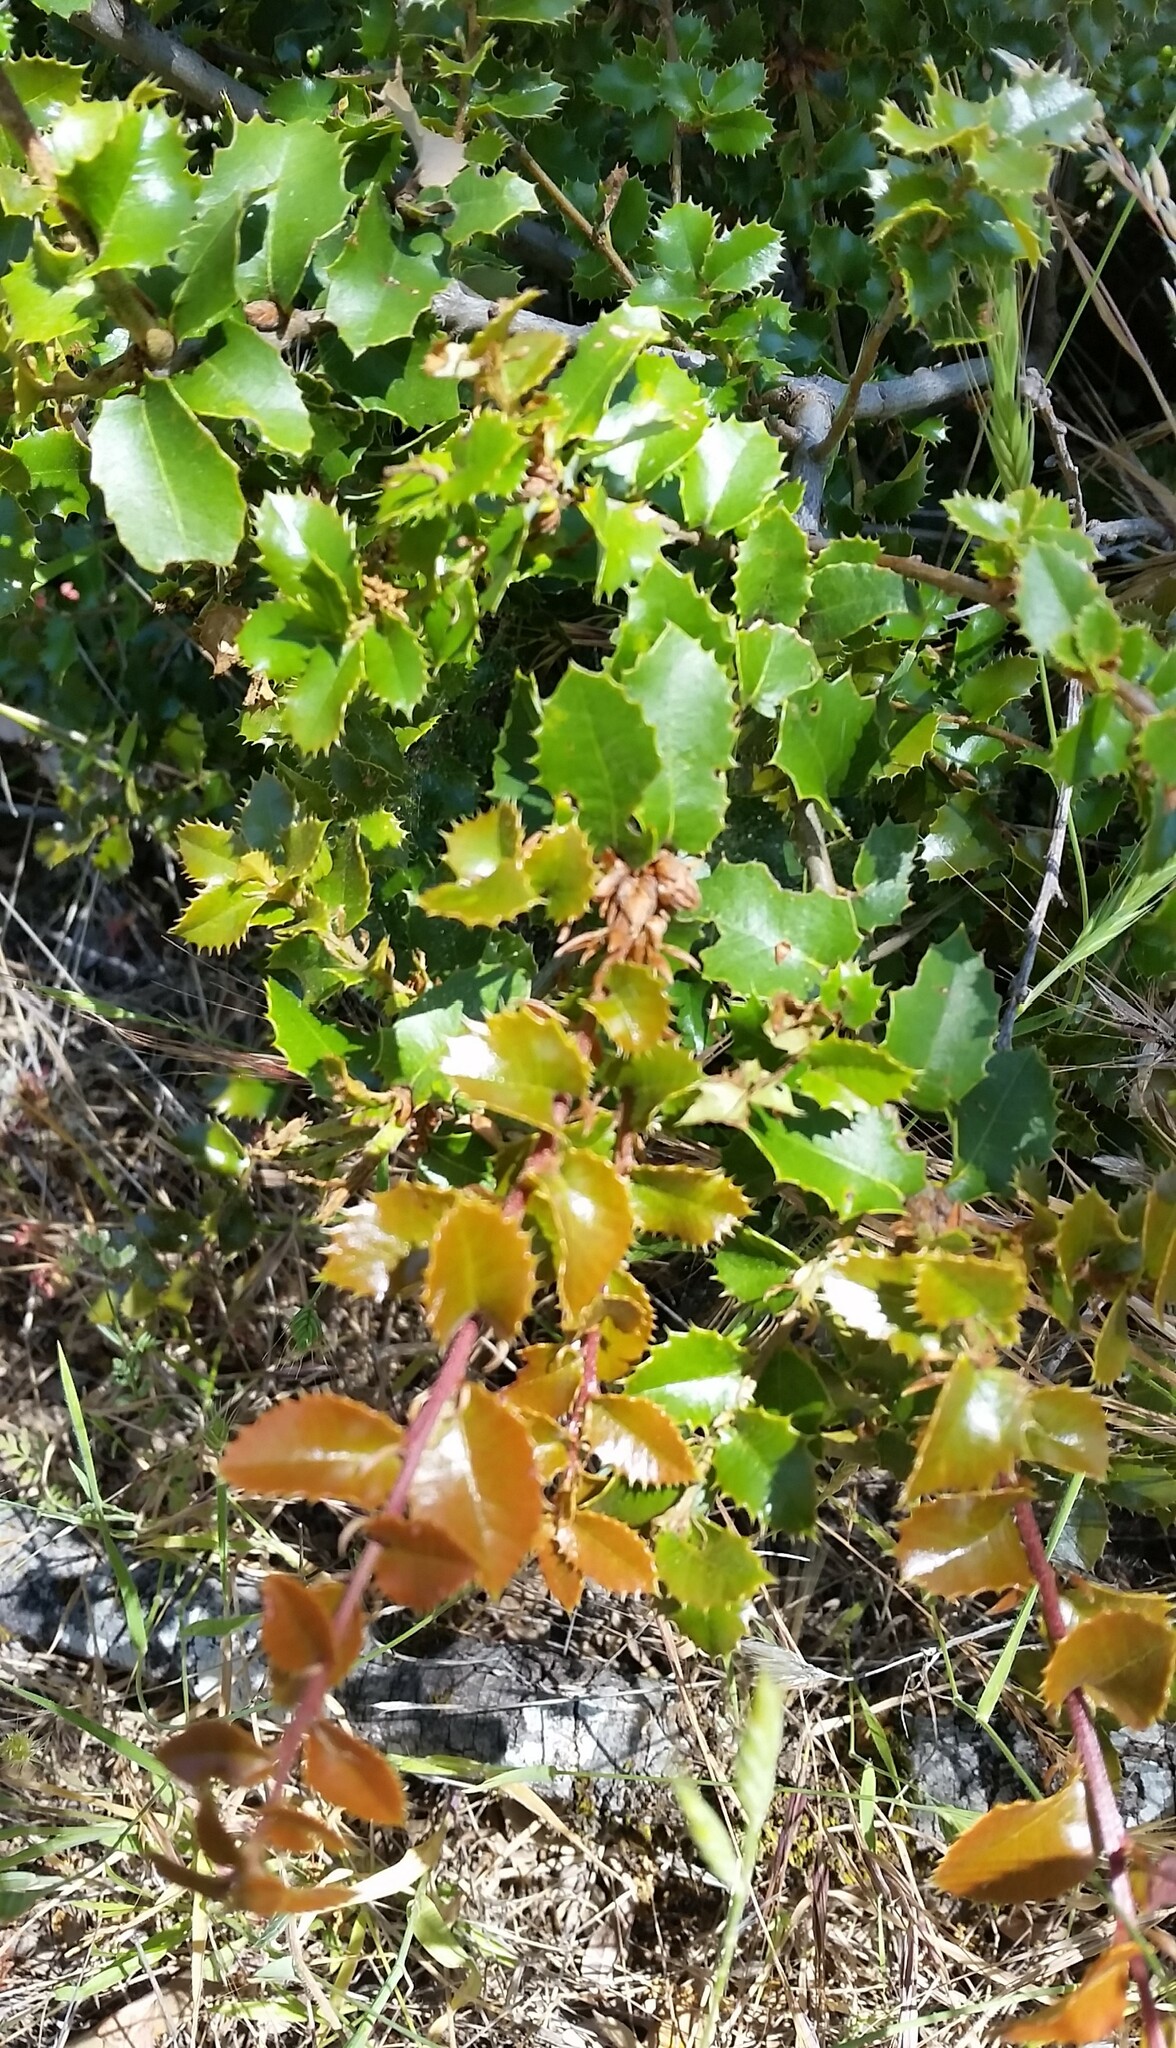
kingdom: Plantae
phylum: Tracheophyta
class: Magnoliopsida
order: Fagales
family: Fagaceae
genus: Quercus
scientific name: Quercus chrysolepis
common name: Canyon live oak
